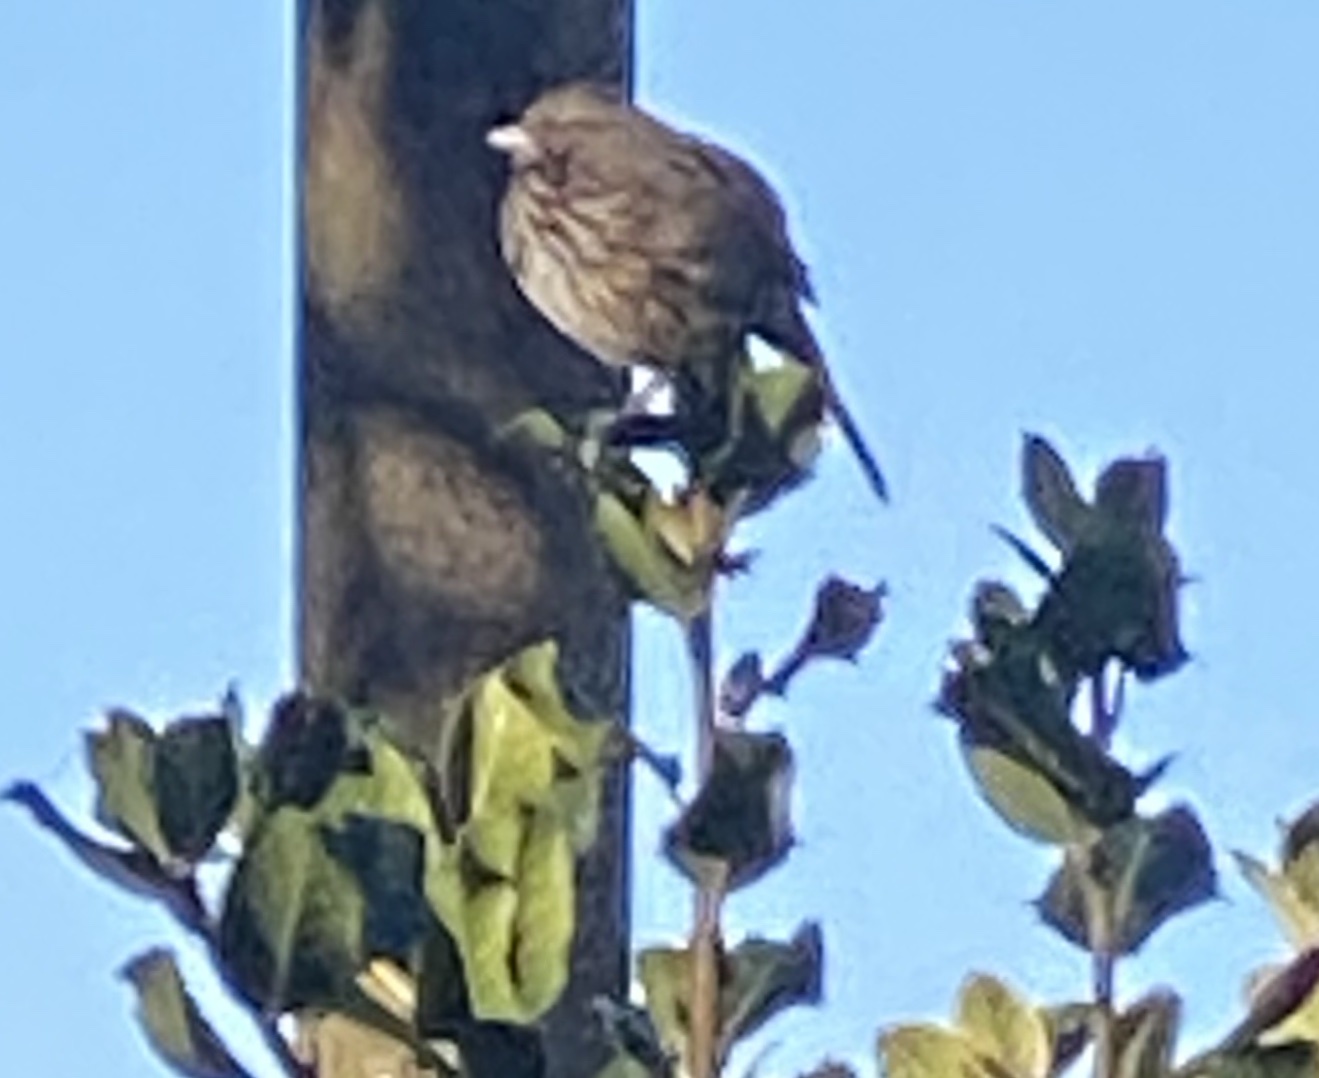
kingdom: Animalia
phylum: Chordata
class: Aves
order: Passeriformes
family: Passerellidae
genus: Melospiza
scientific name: Melospiza melodia
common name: Song sparrow
